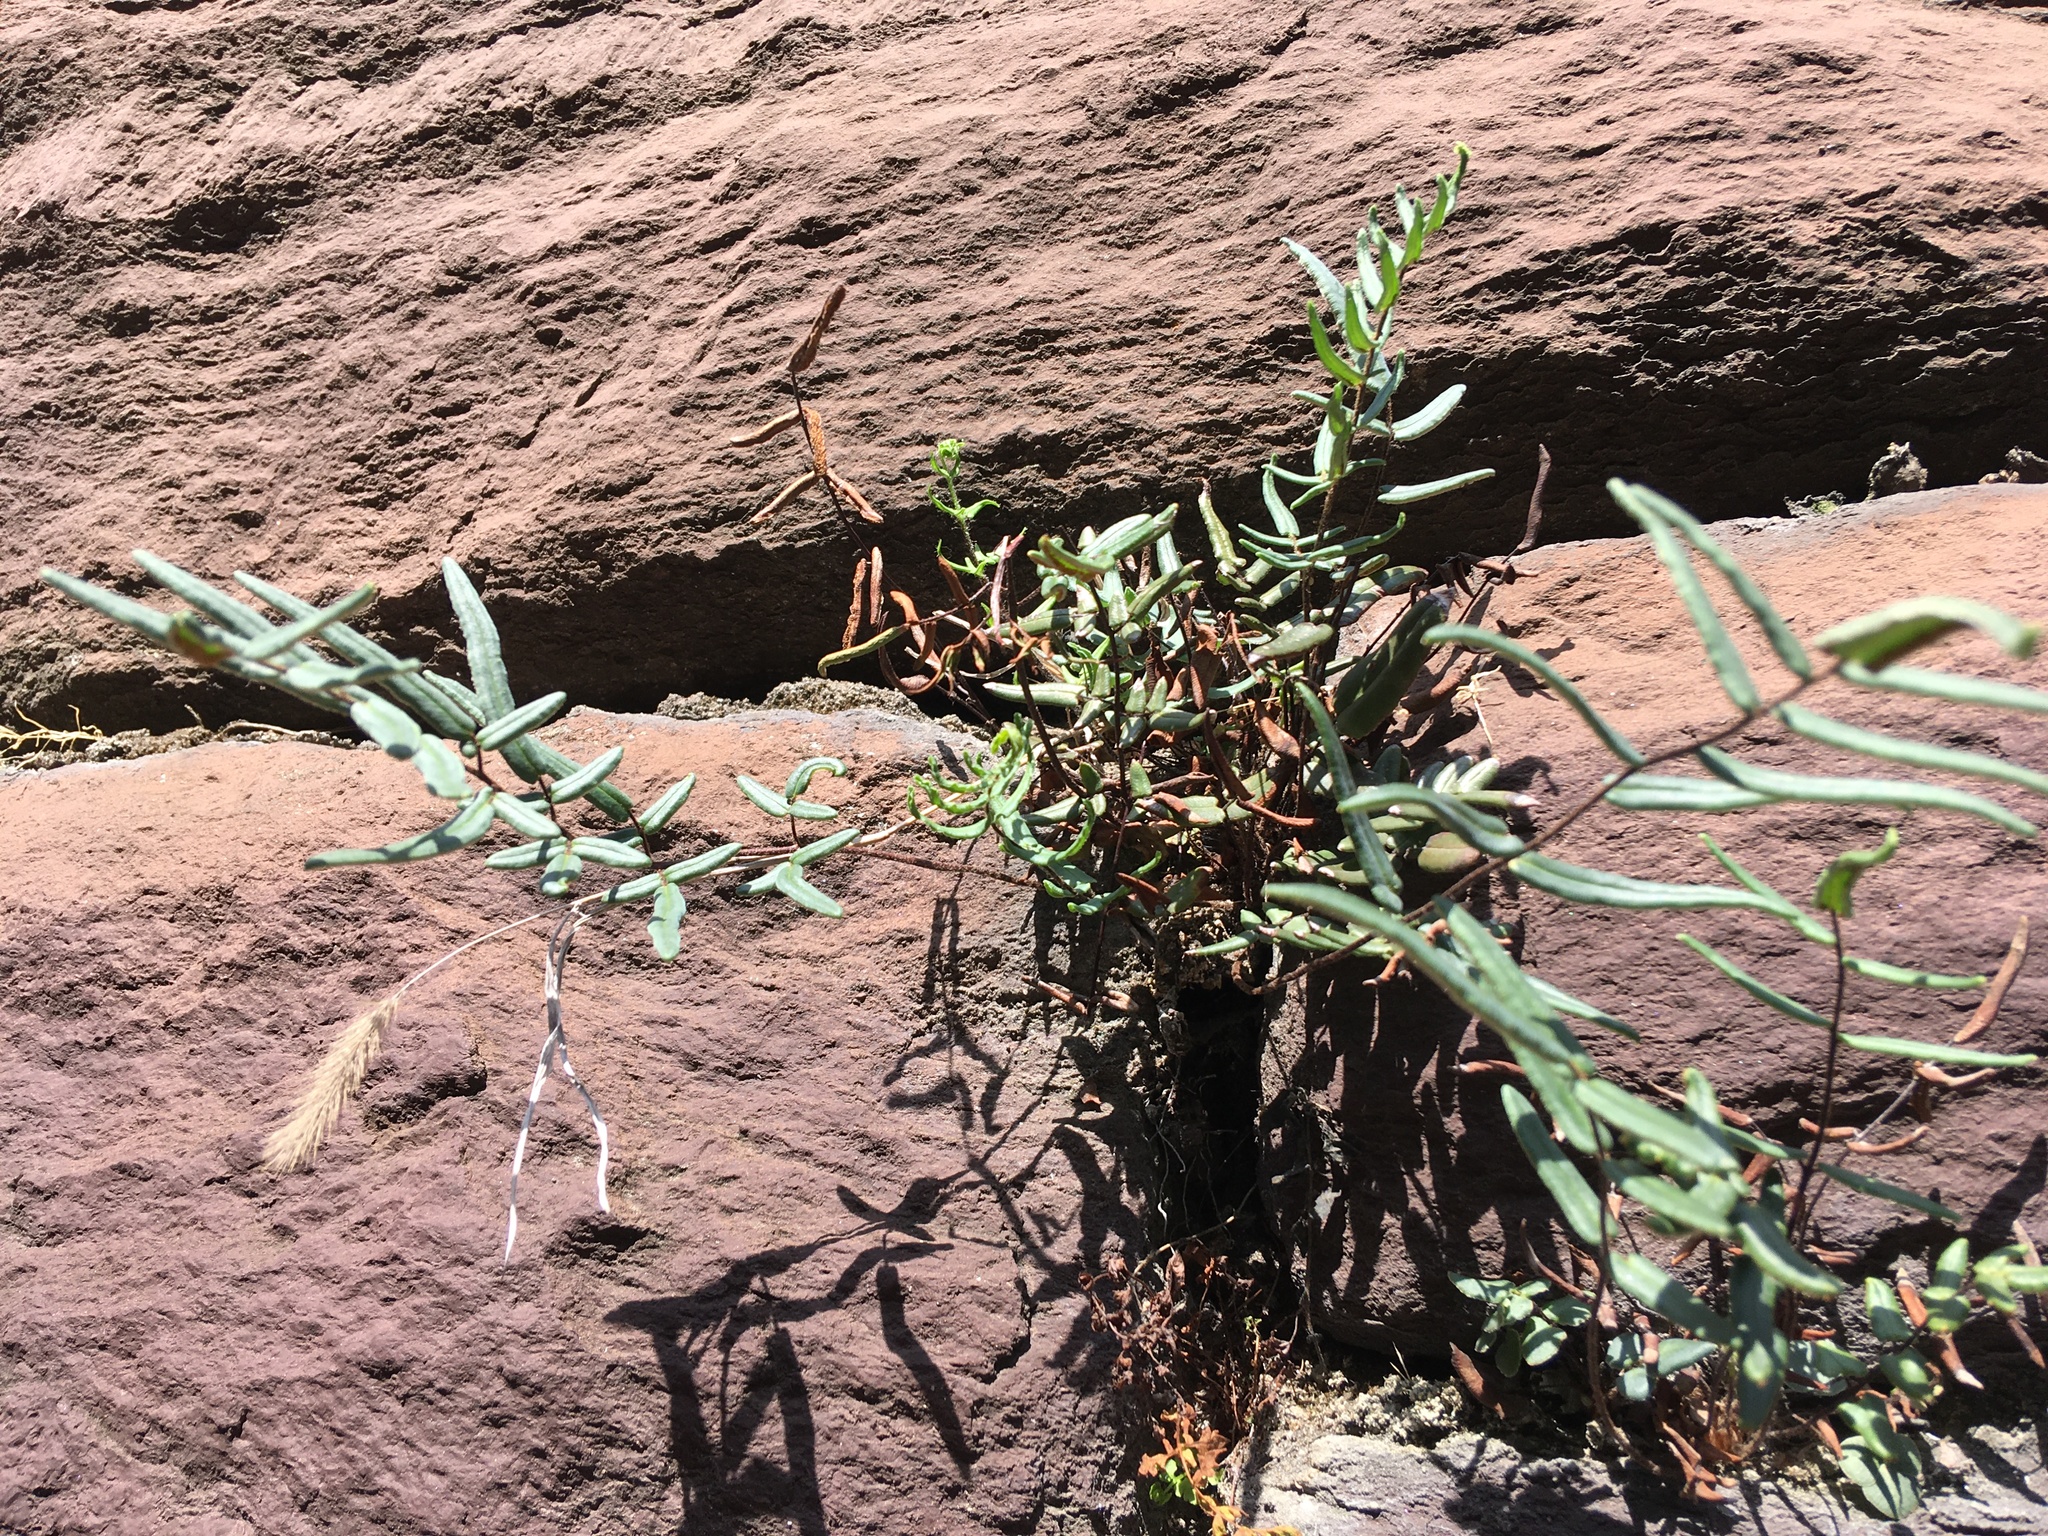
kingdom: Plantae
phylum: Tracheophyta
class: Polypodiopsida
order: Polypodiales
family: Pteridaceae
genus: Pellaea
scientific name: Pellaea atropurpurea
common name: Hairy cliffbrake
